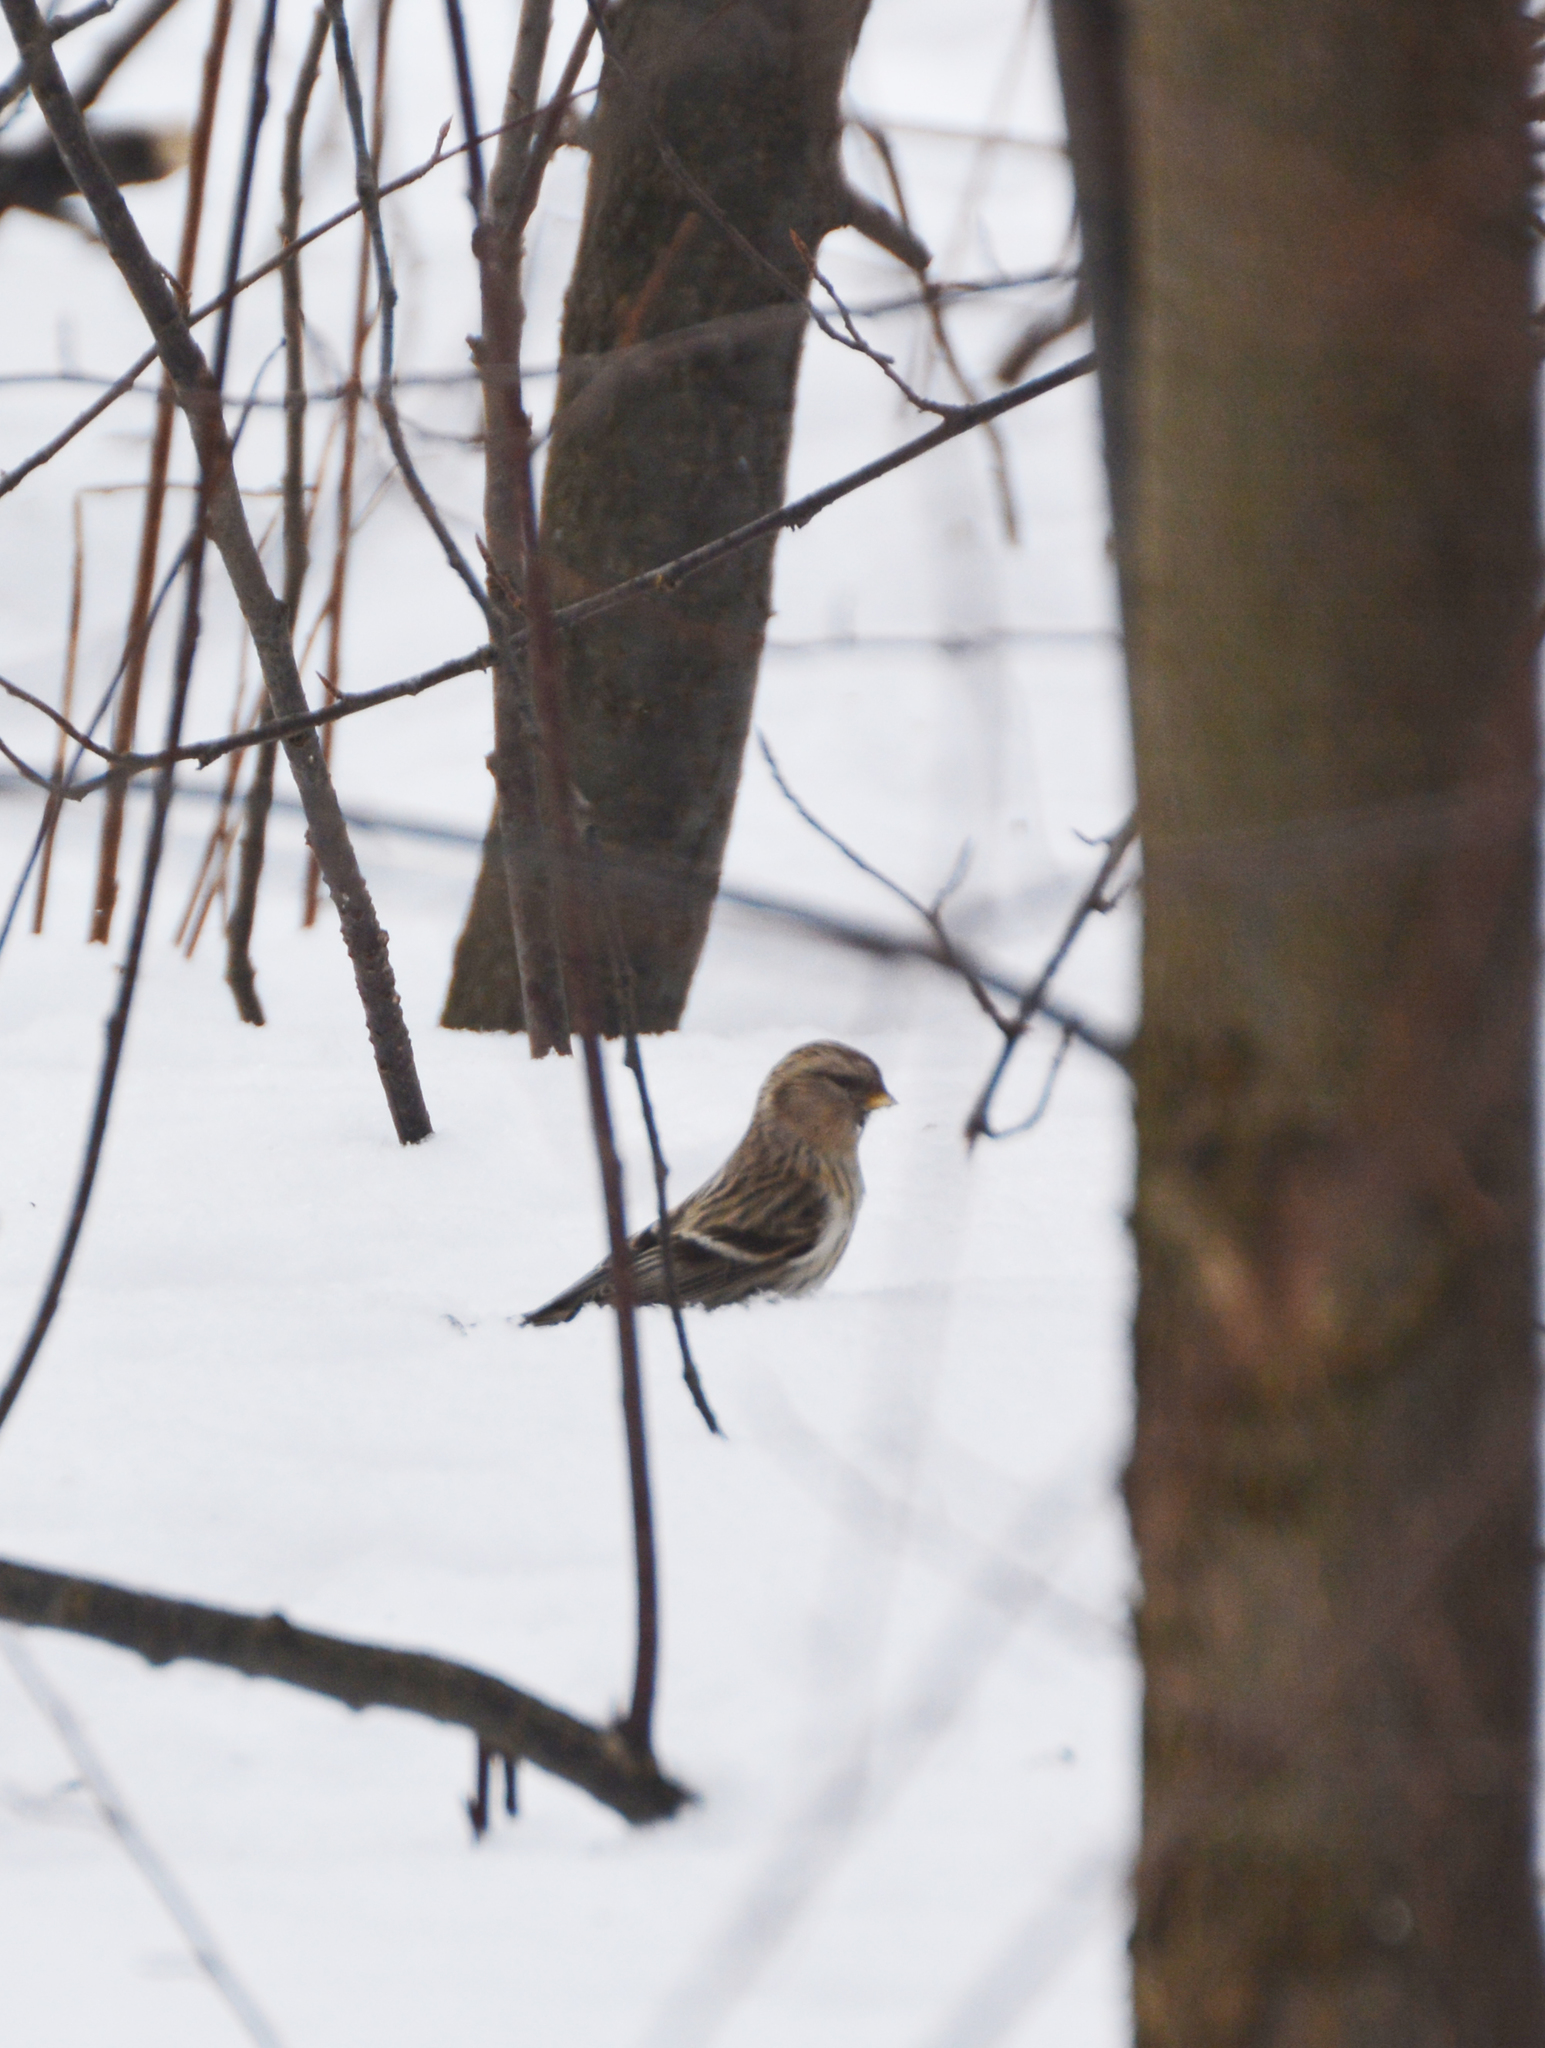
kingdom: Animalia
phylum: Chordata
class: Aves
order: Passeriformes
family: Fringillidae
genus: Acanthis
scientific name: Acanthis flammea
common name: Common redpoll
